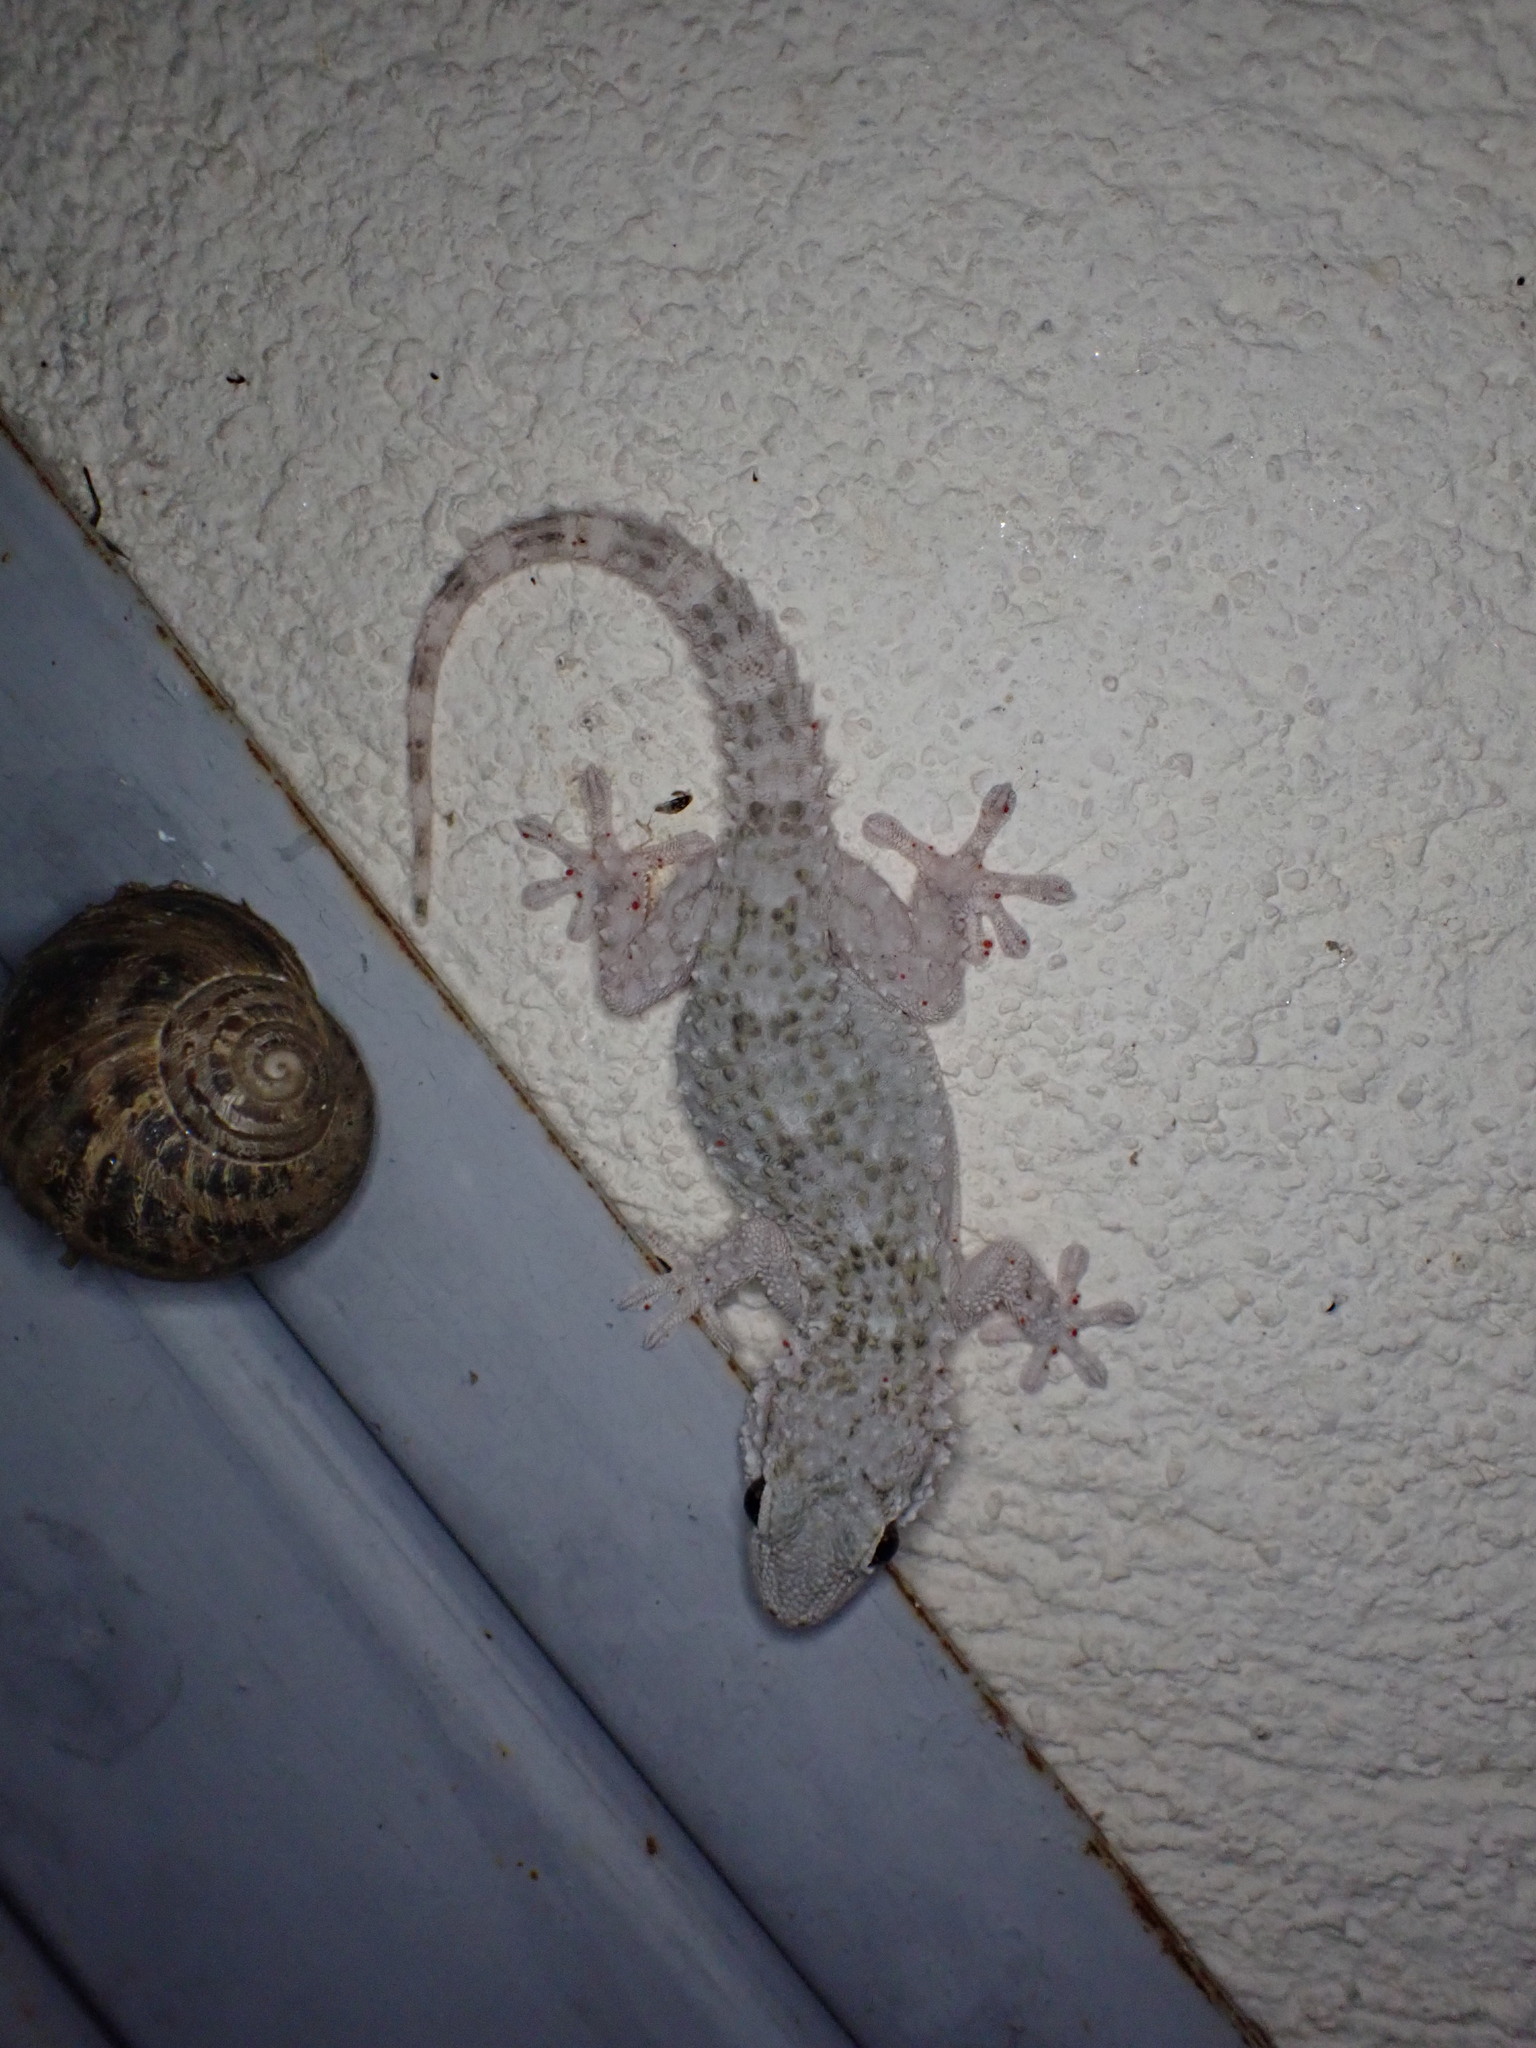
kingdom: Animalia
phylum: Chordata
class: Squamata
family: Phyllodactylidae
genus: Tarentola
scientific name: Tarentola mauritanica
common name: Moorish gecko
